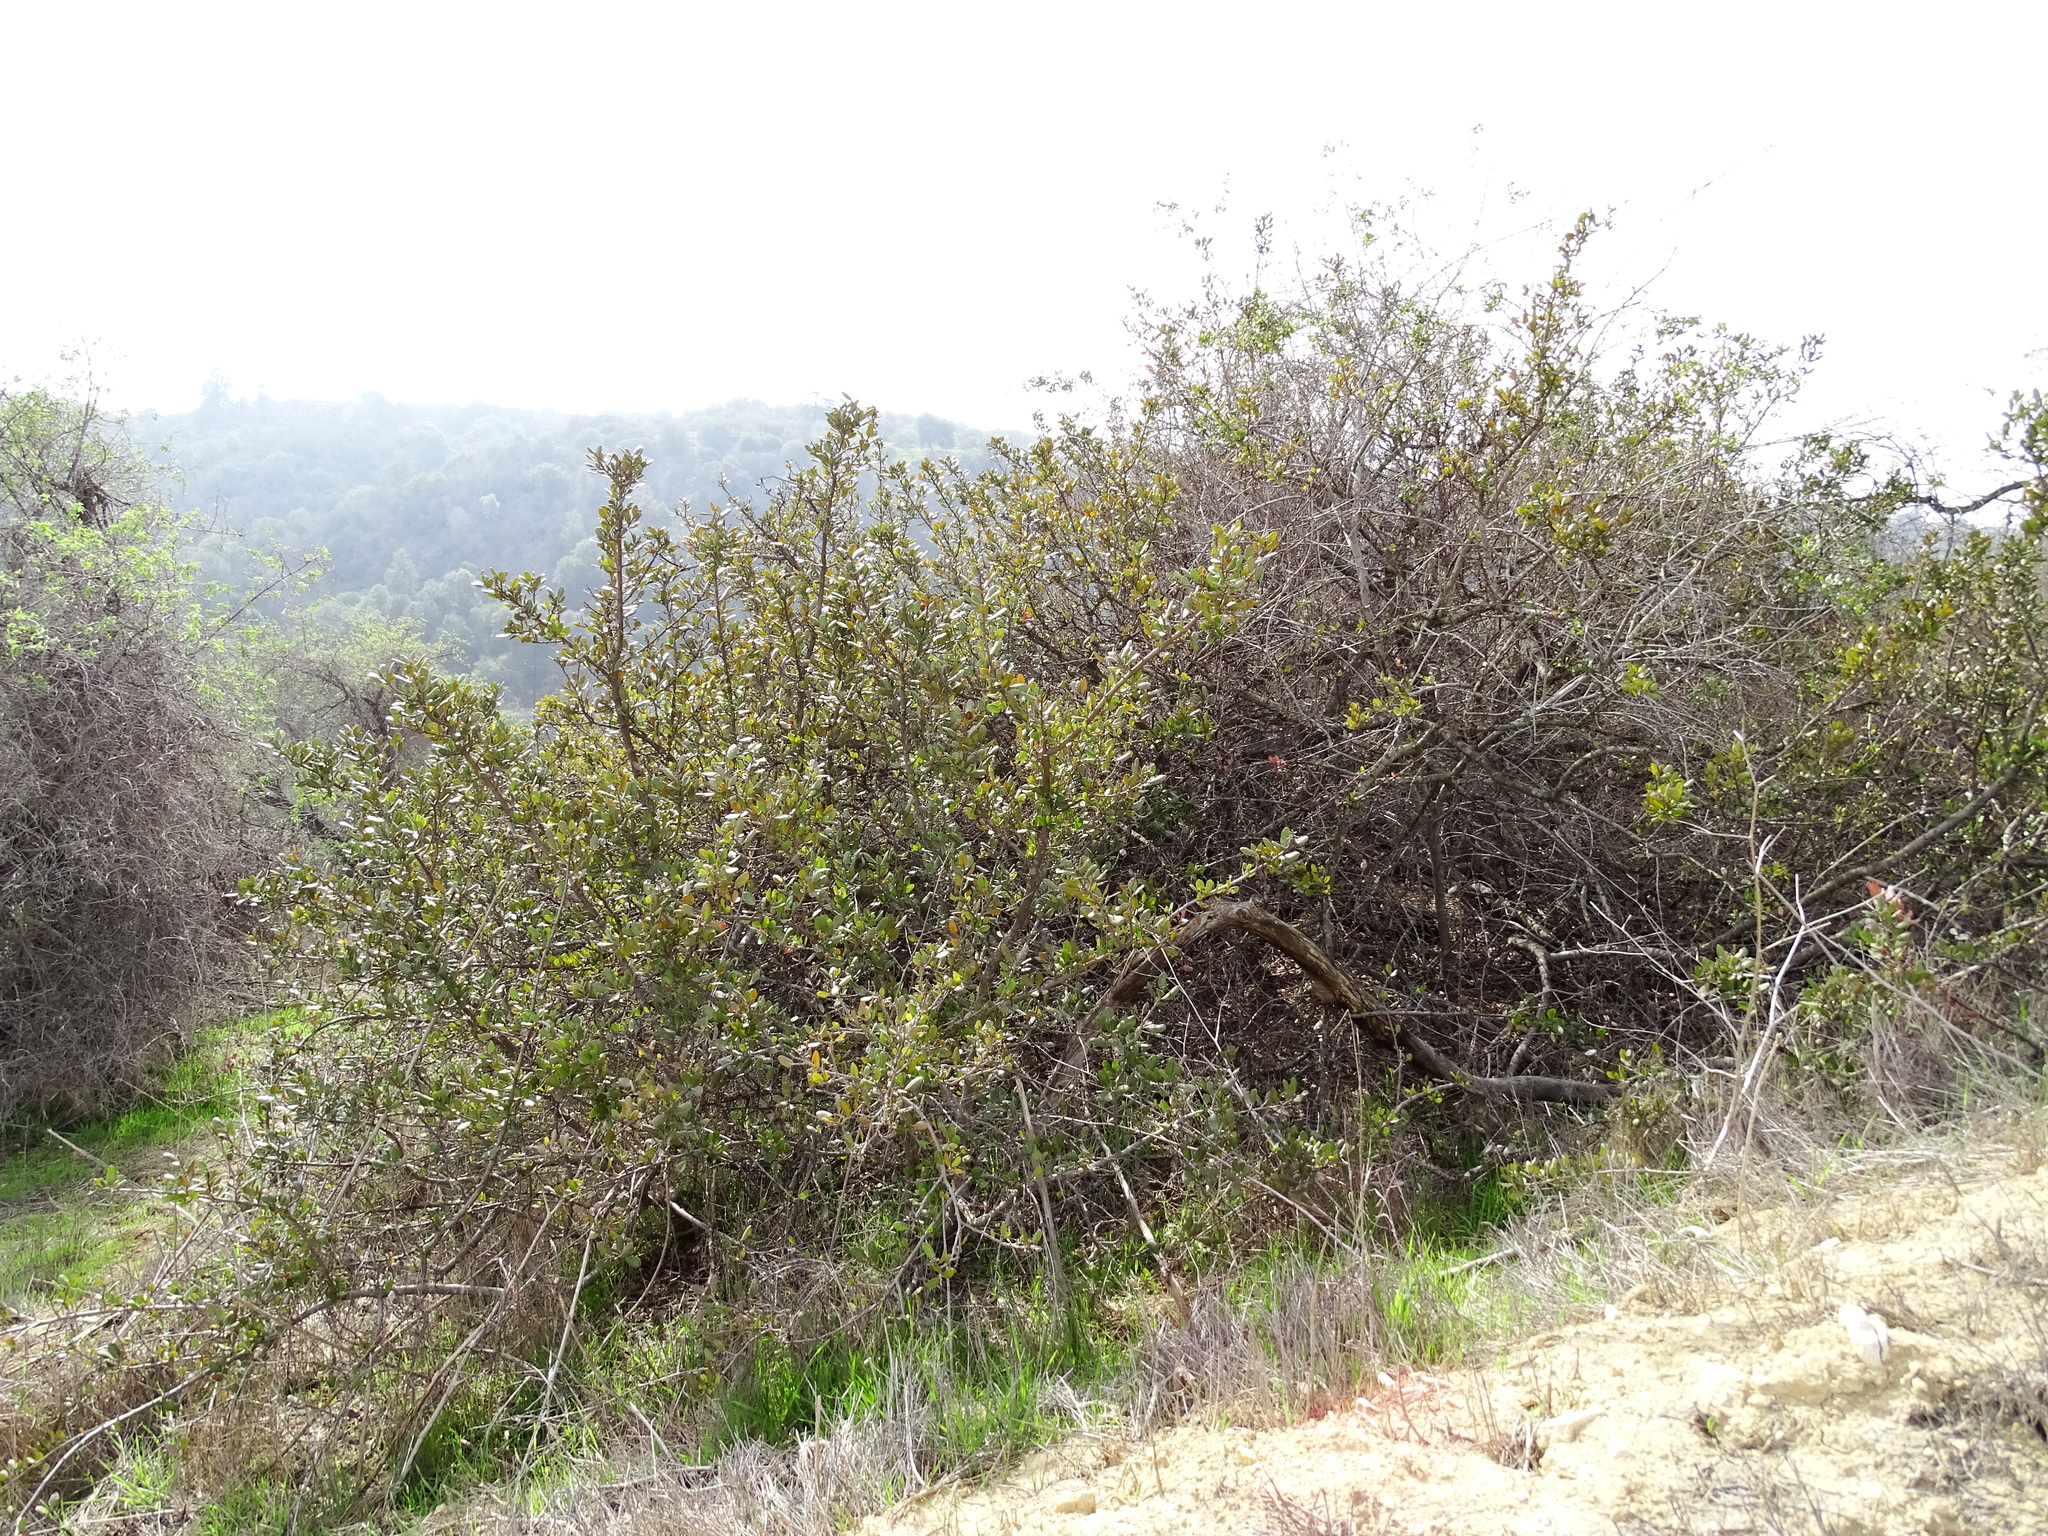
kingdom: Plantae
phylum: Tracheophyta
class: Magnoliopsida
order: Sapindales
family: Anacardiaceae
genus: Rhus
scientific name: Rhus integrifolia
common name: Lemonade sumac
